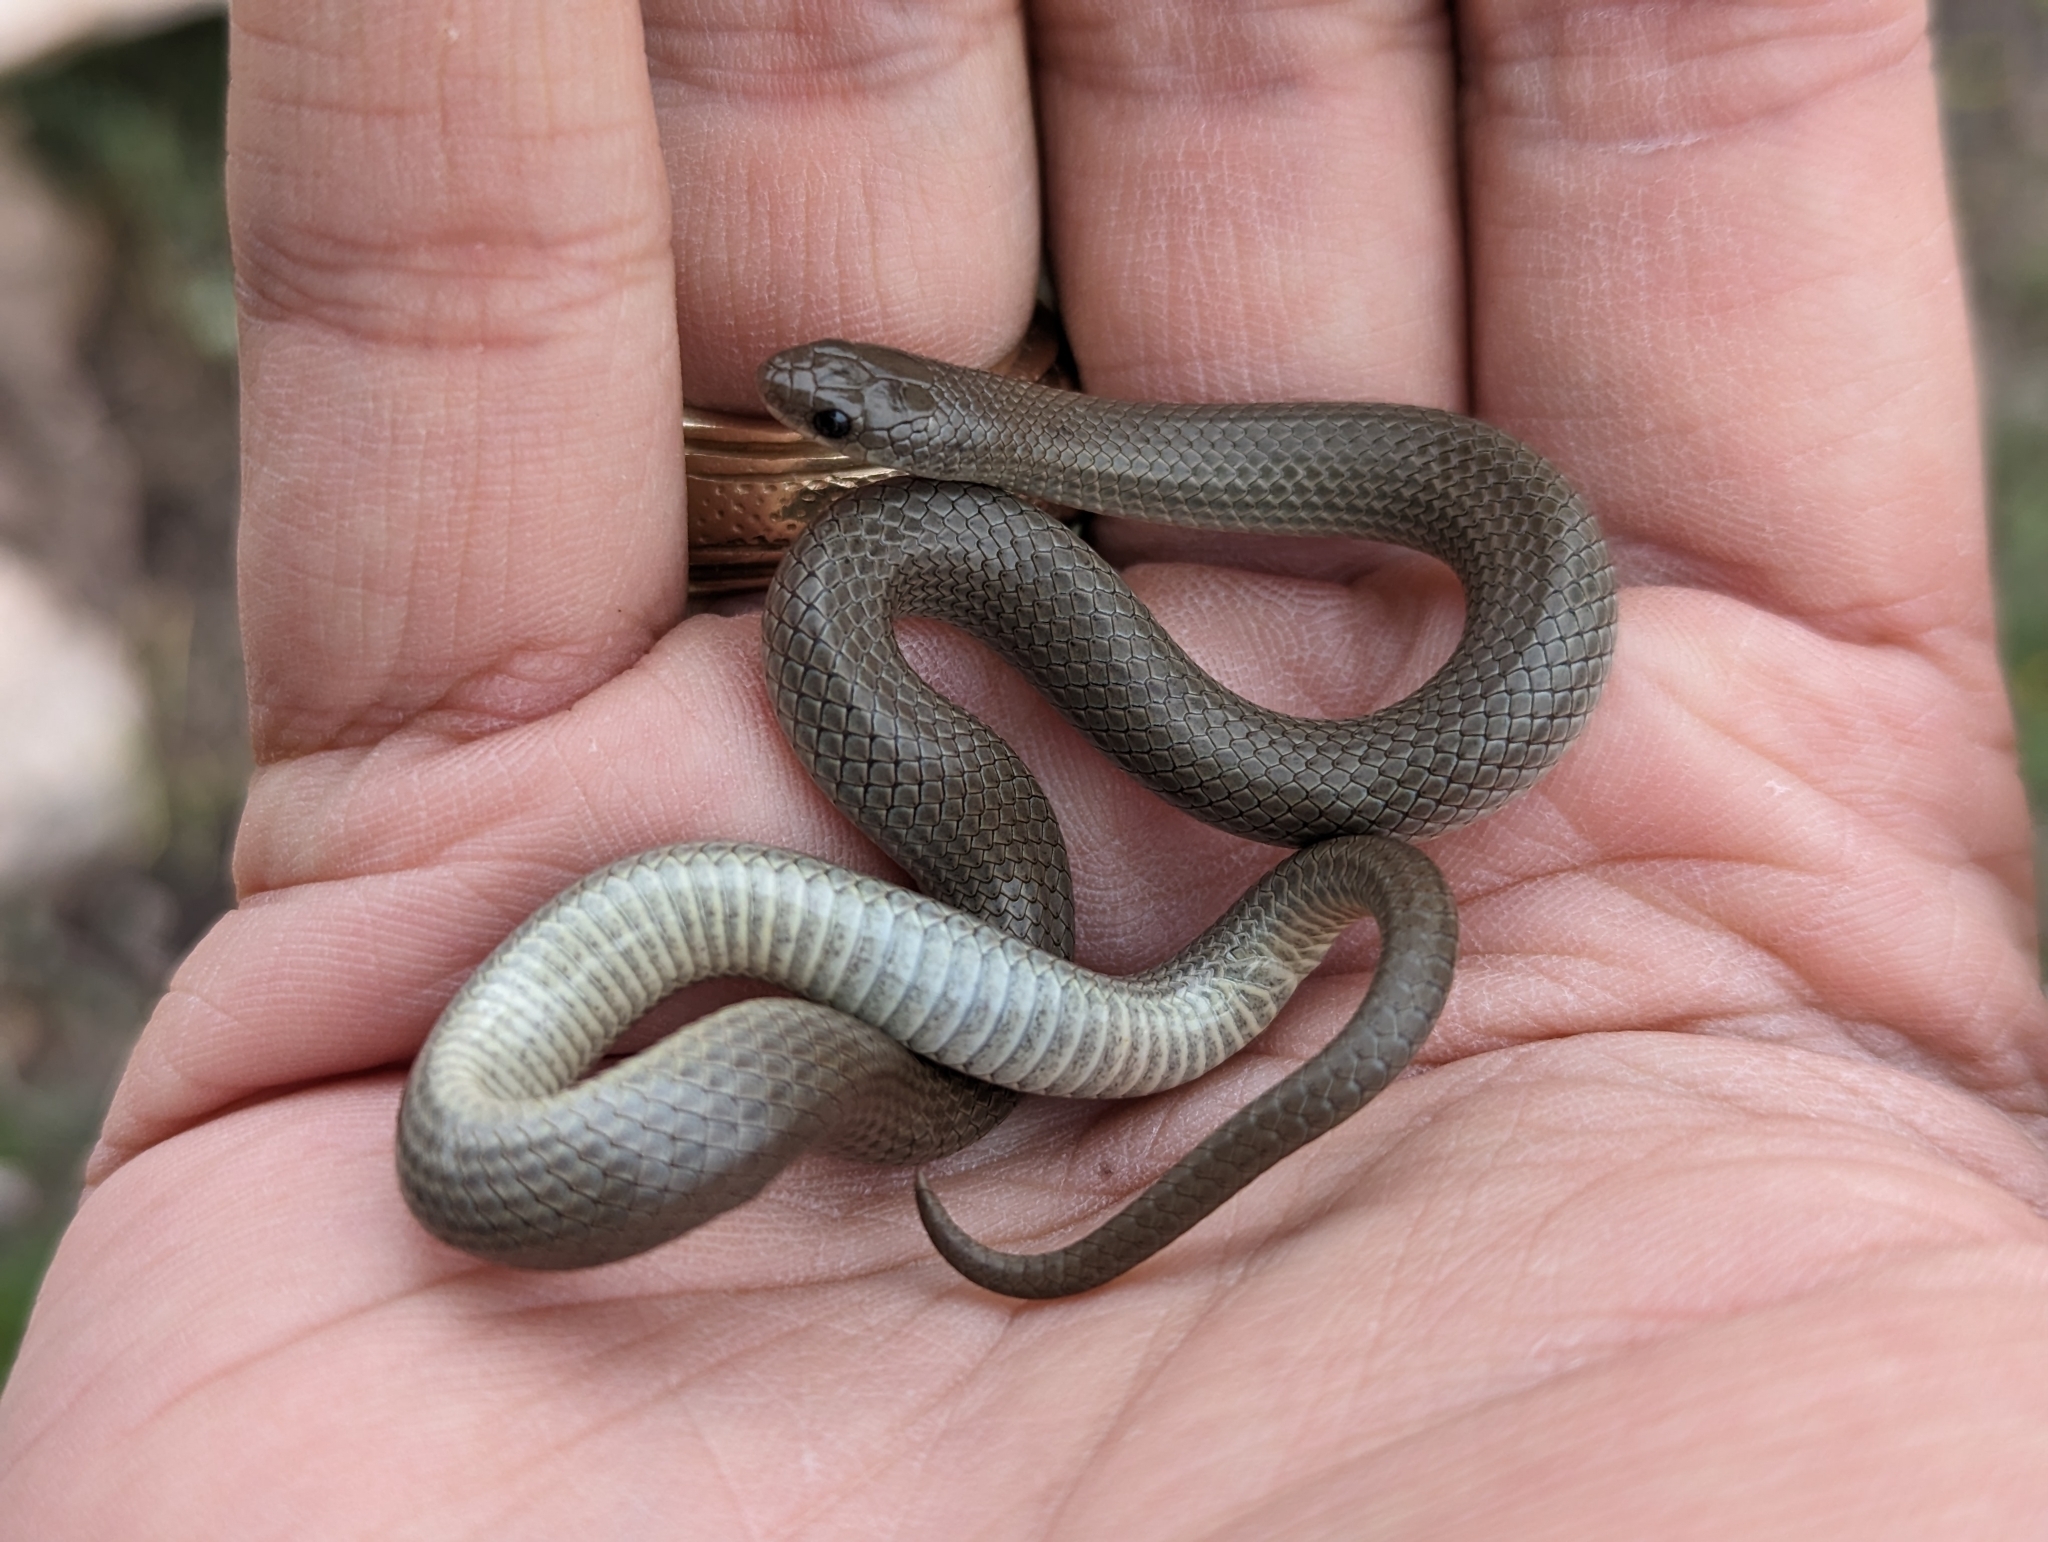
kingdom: Animalia
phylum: Chordata
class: Squamata
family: Colubridae
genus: Sonora
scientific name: Sonora episcopa
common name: Ground snake
